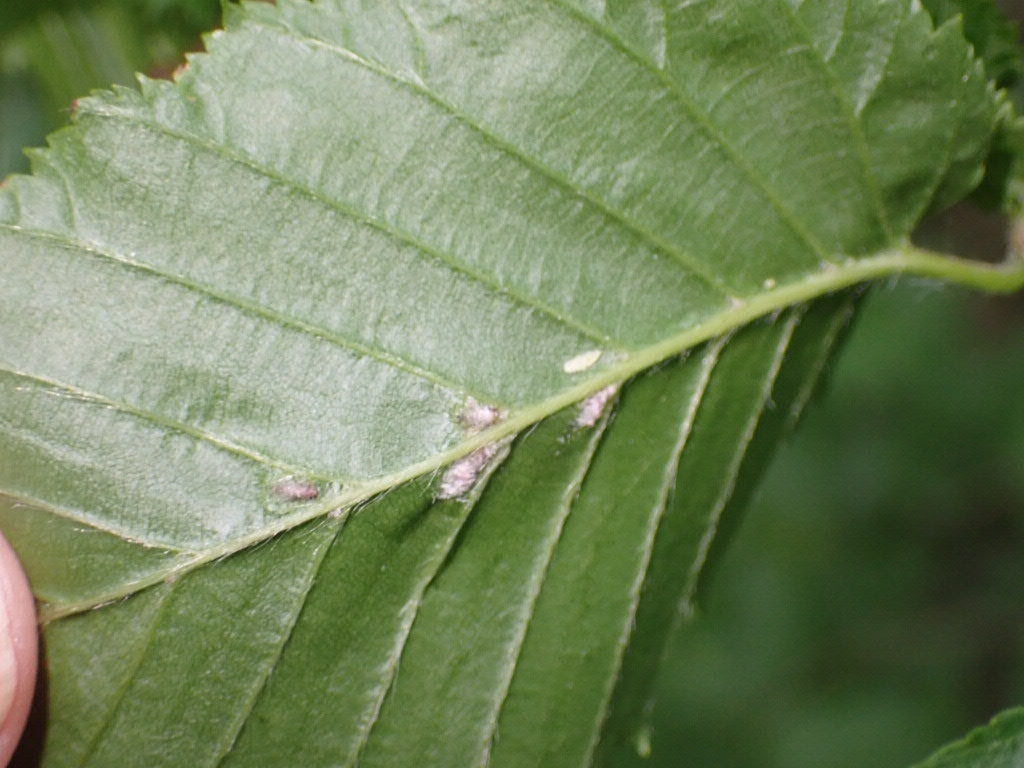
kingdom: Animalia
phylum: Arthropoda
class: Arachnida
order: Trombidiformes
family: Eriophyidae
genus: Aceria
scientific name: Aceria tenellus
